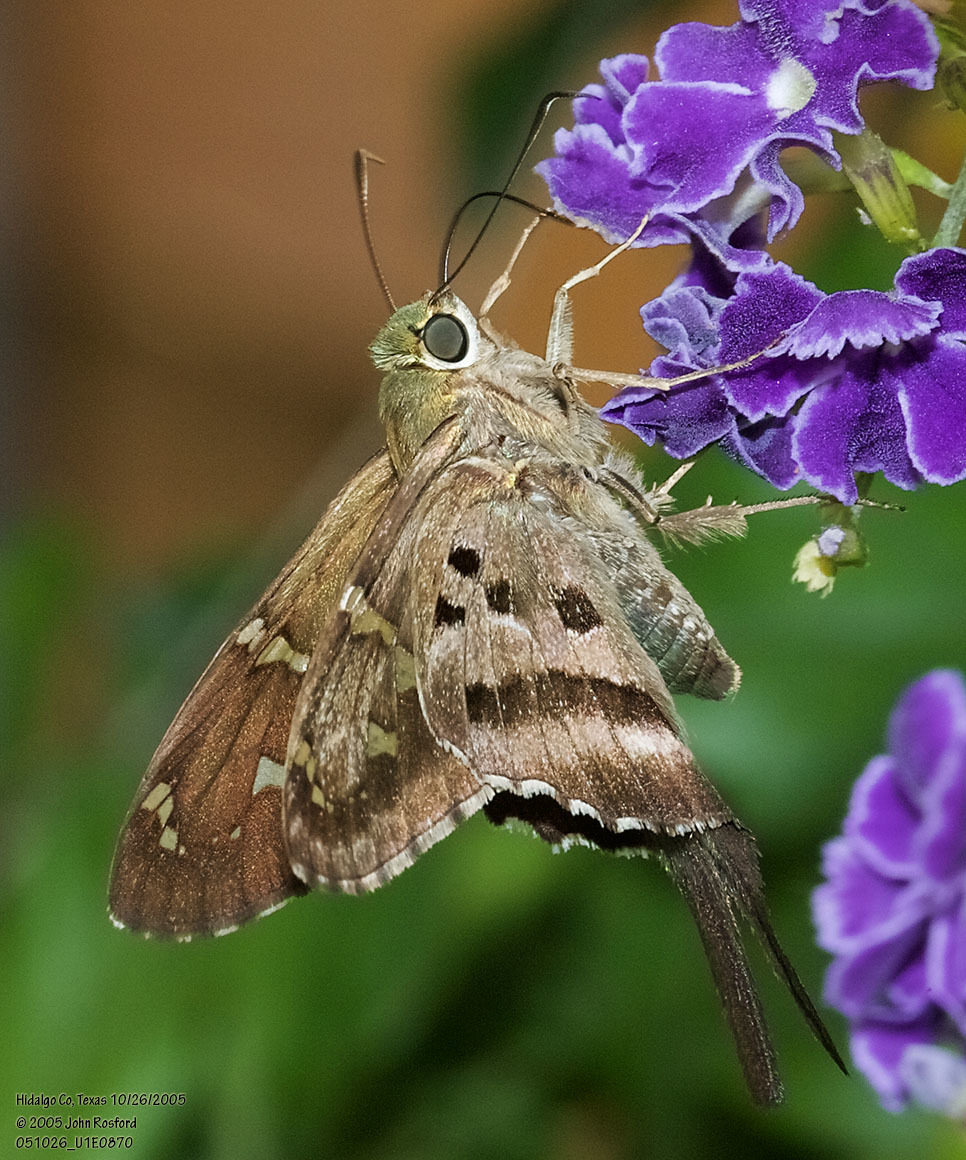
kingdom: Animalia
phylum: Arthropoda
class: Insecta
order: Lepidoptera
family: Hesperiidae
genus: Urbanus
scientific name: Urbanus proteus
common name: Long-tailed skipper
